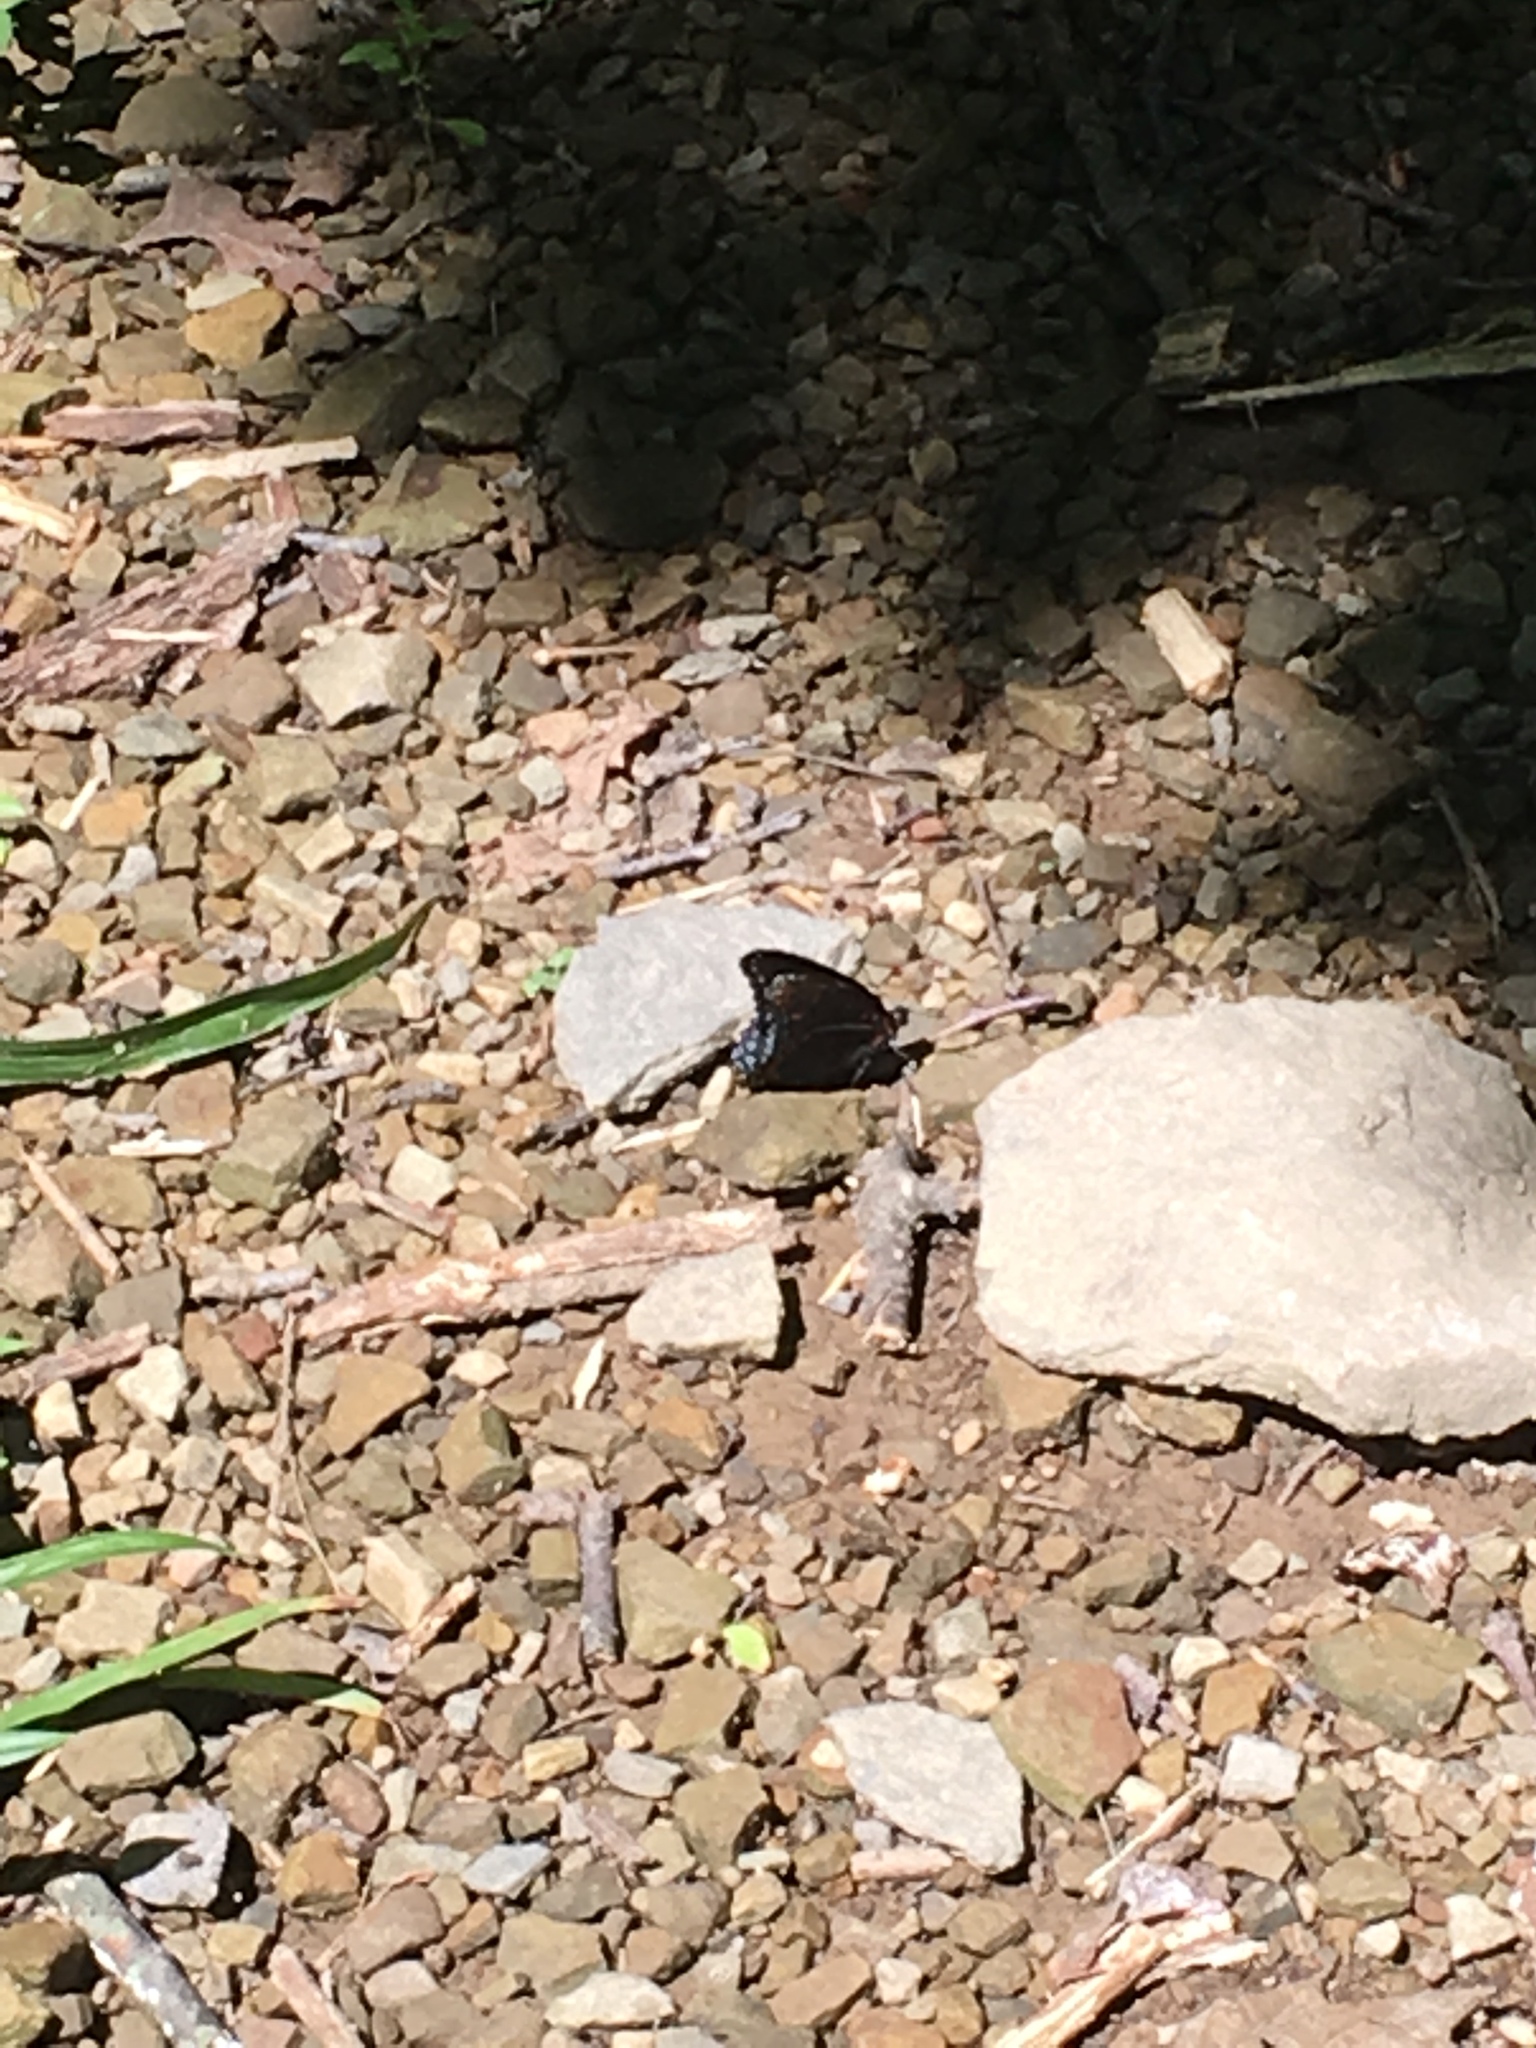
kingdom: Animalia
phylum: Arthropoda
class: Insecta
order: Lepidoptera
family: Nymphalidae
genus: Limenitis
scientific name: Limenitis arthemis
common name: Red-spotted admiral
